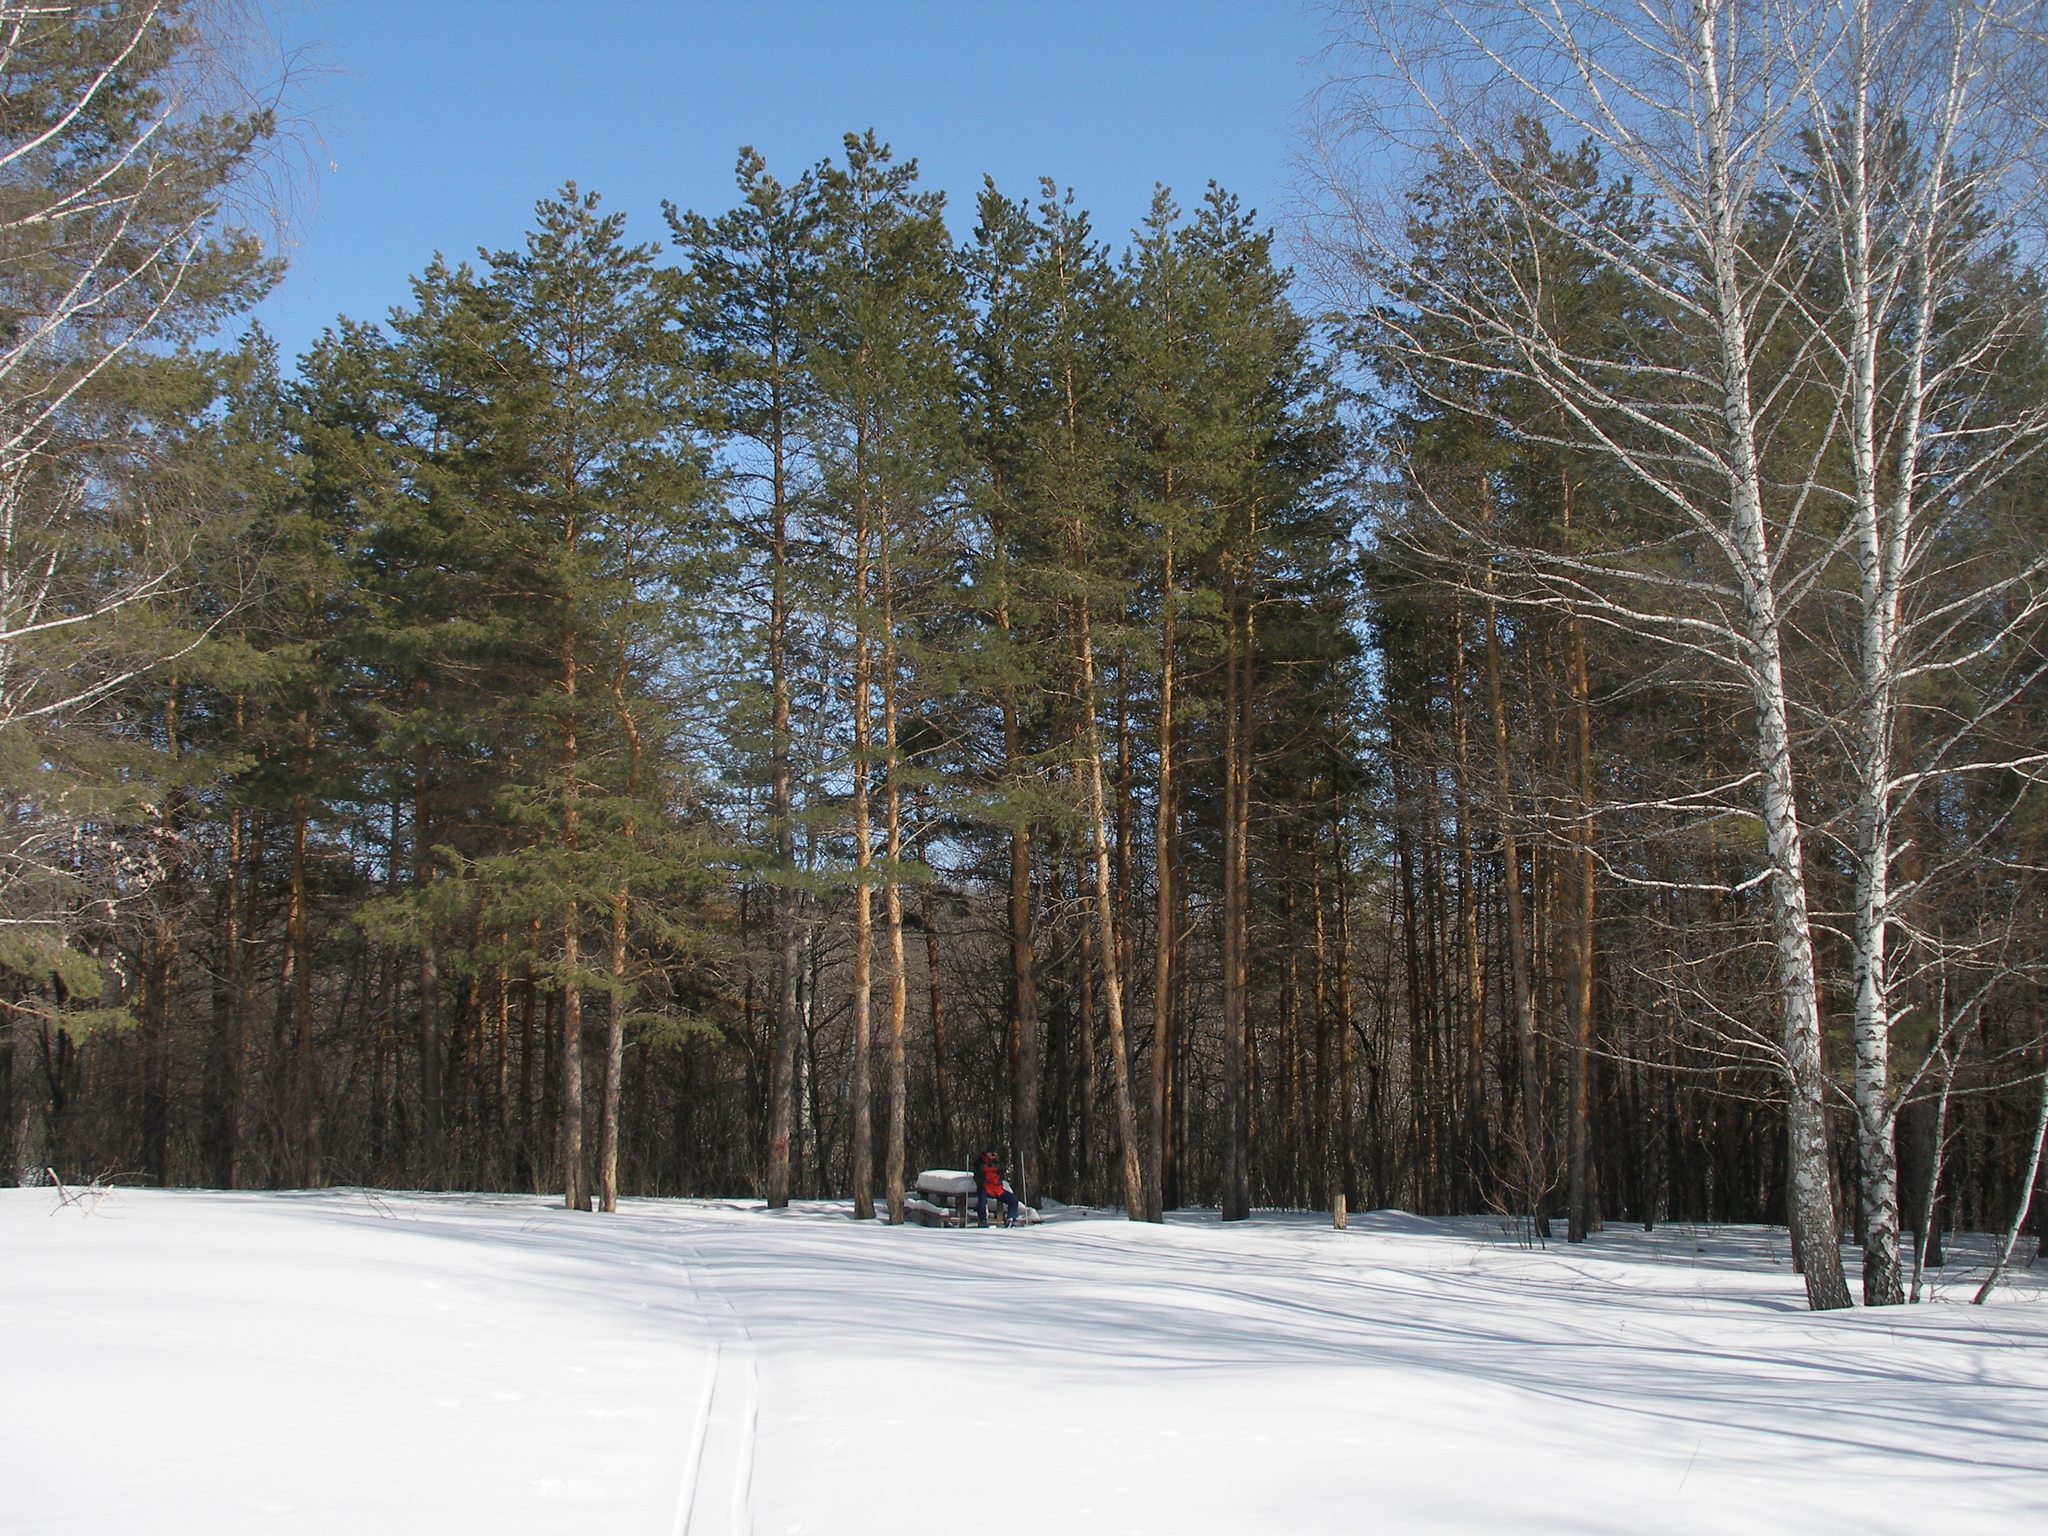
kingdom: Plantae
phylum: Tracheophyta
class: Pinopsida
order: Pinales
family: Pinaceae
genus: Pinus
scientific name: Pinus sylvestris
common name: Scots pine
